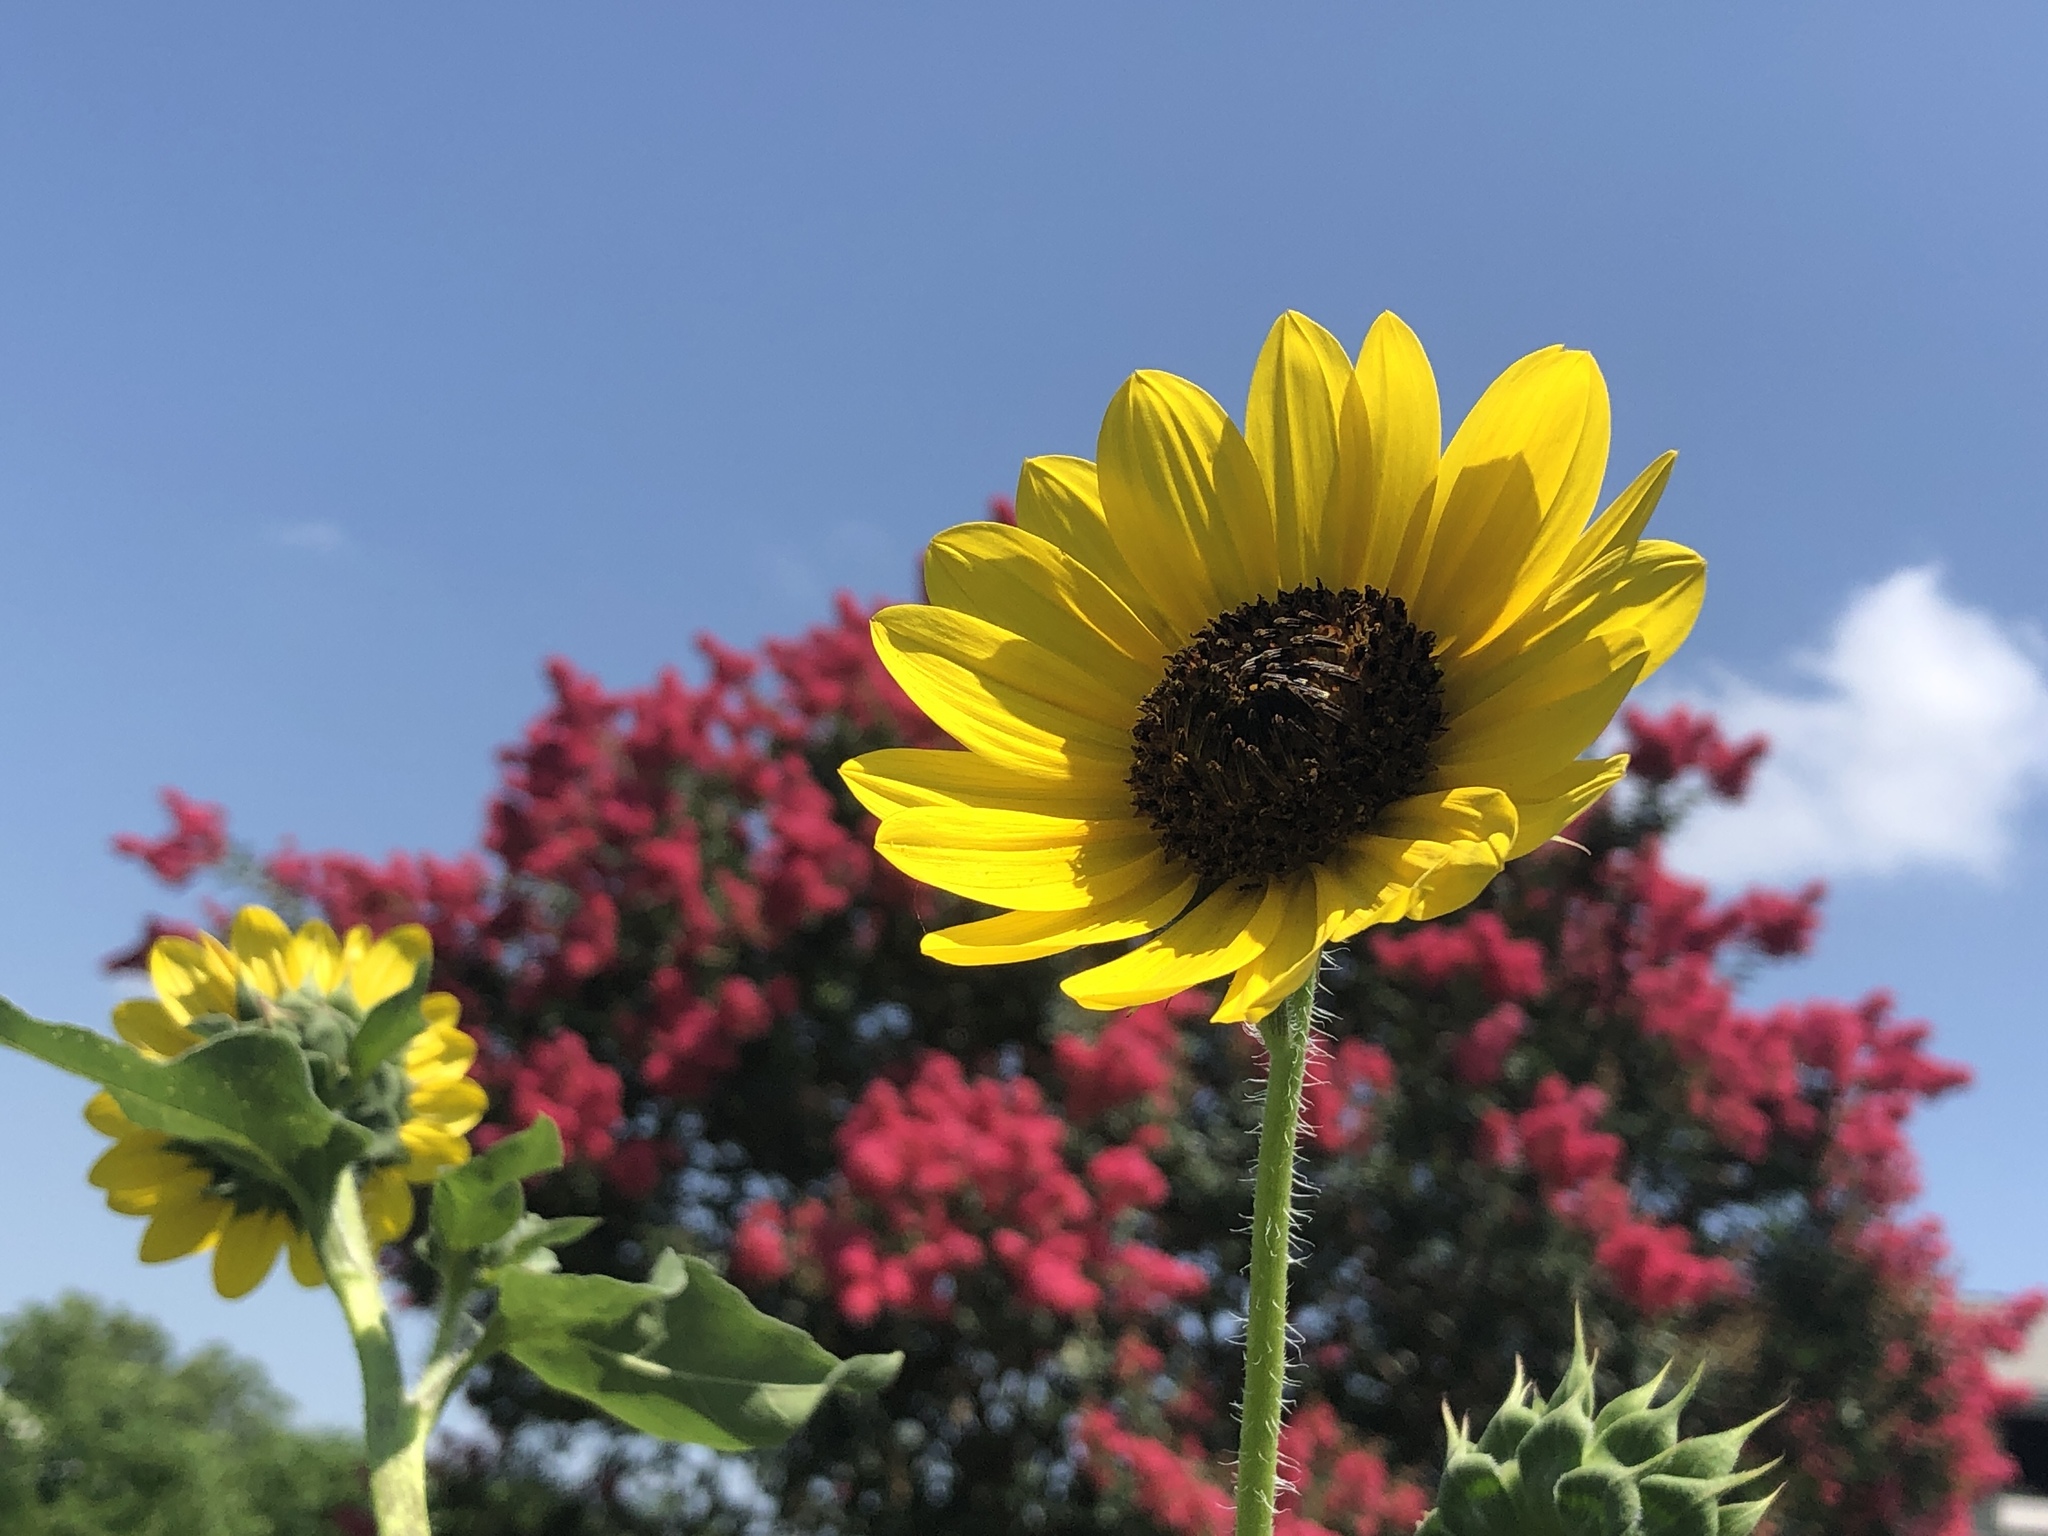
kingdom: Plantae
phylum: Tracheophyta
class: Magnoliopsida
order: Asterales
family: Asteraceae
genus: Helianthus
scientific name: Helianthus annuus
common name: Sunflower
